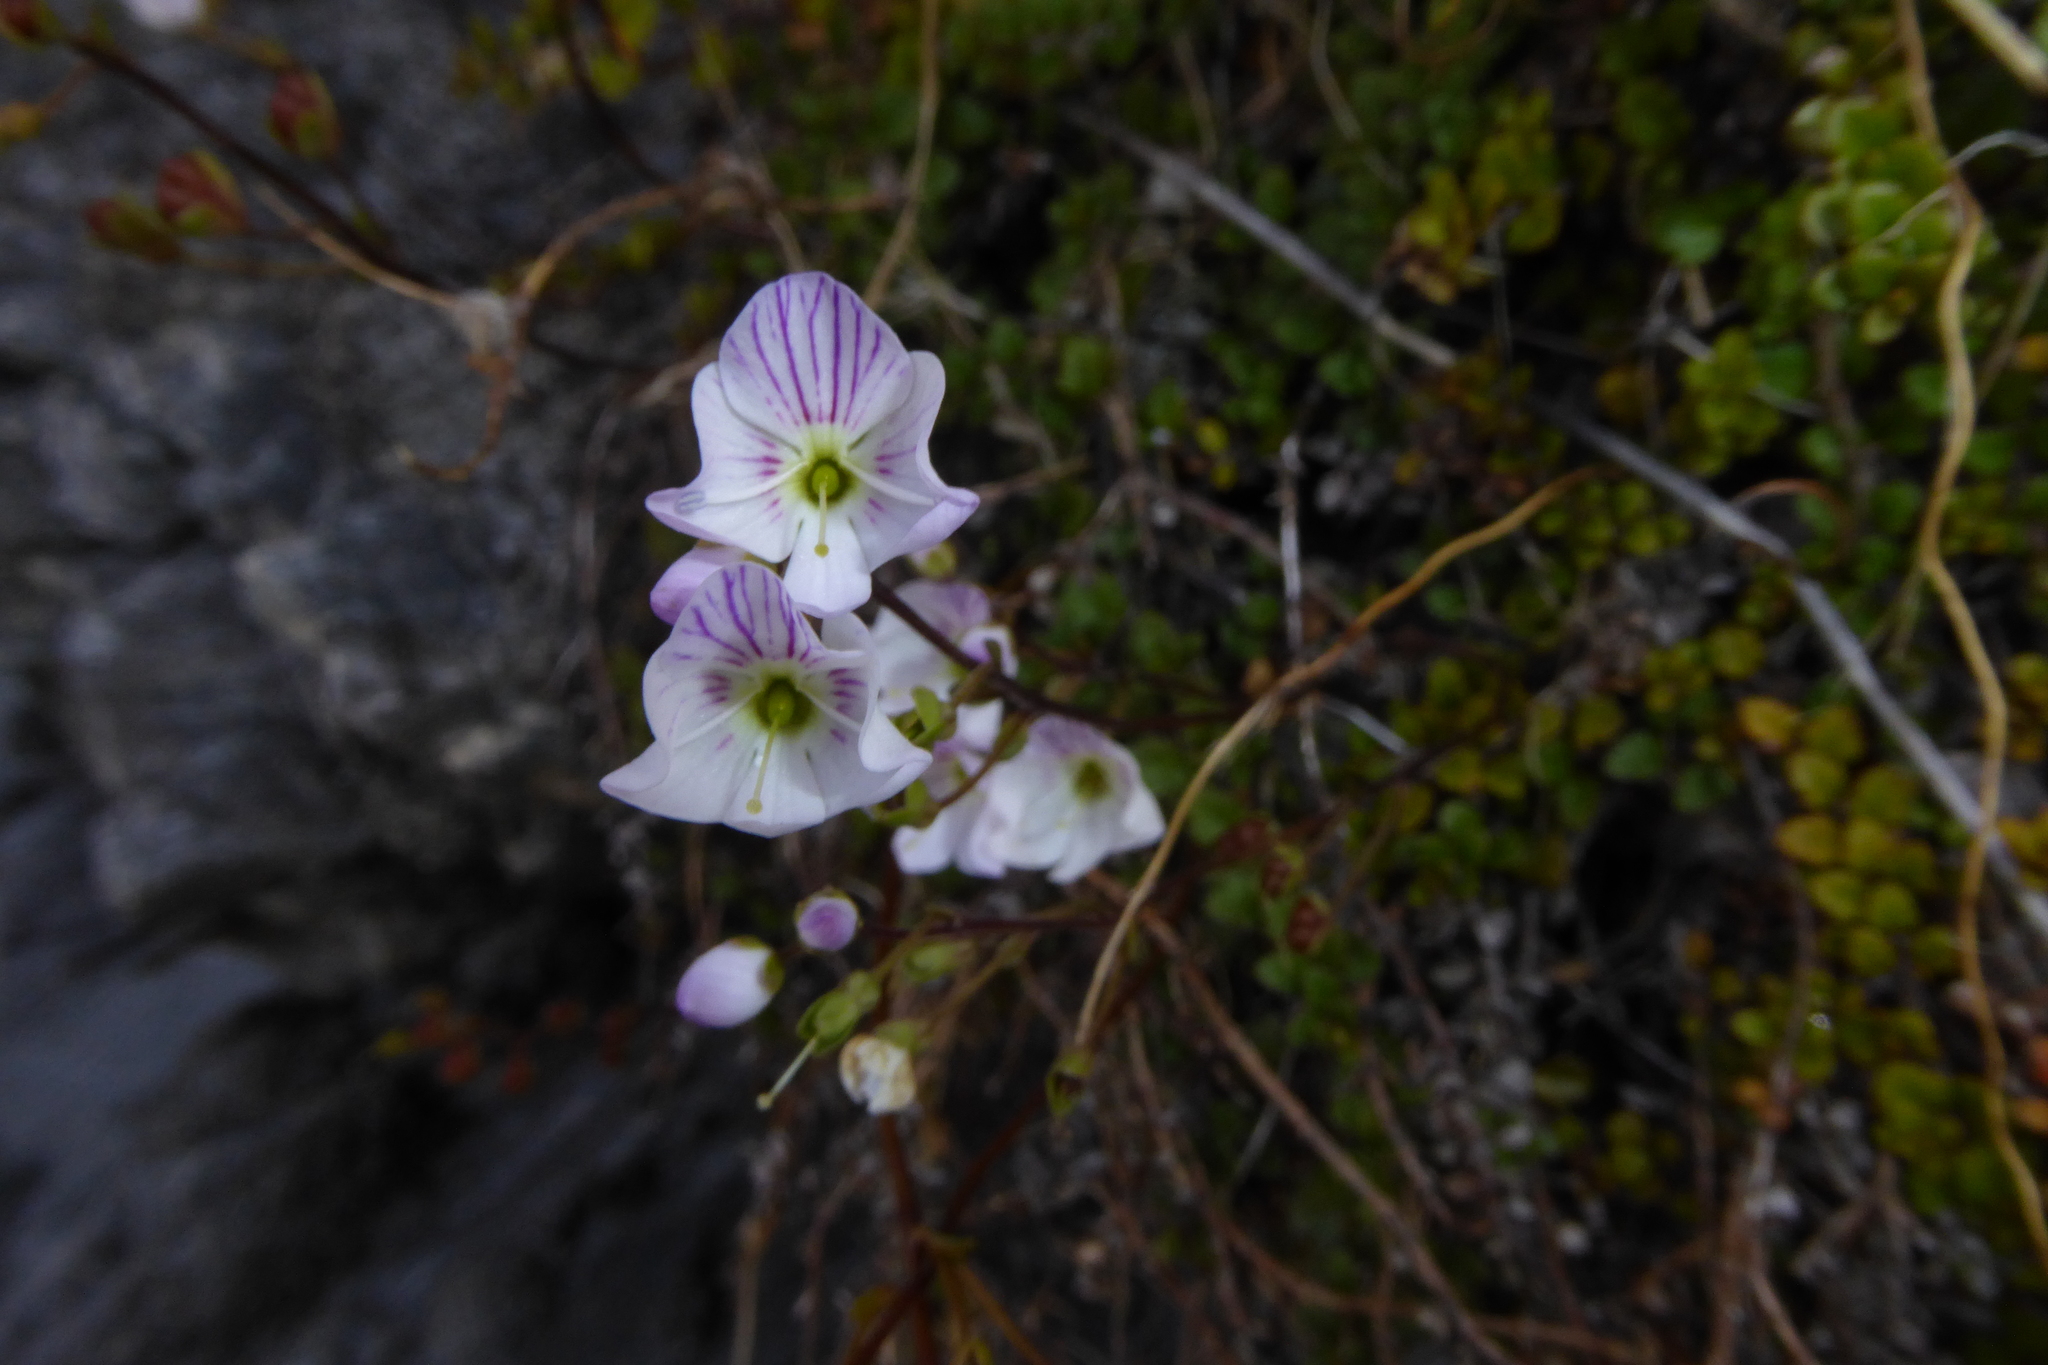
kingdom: Plantae
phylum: Tracheophyta
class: Magnoliopsida
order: Lamiales
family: Plantaginaceae
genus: Veronica
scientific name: Veronica decora
